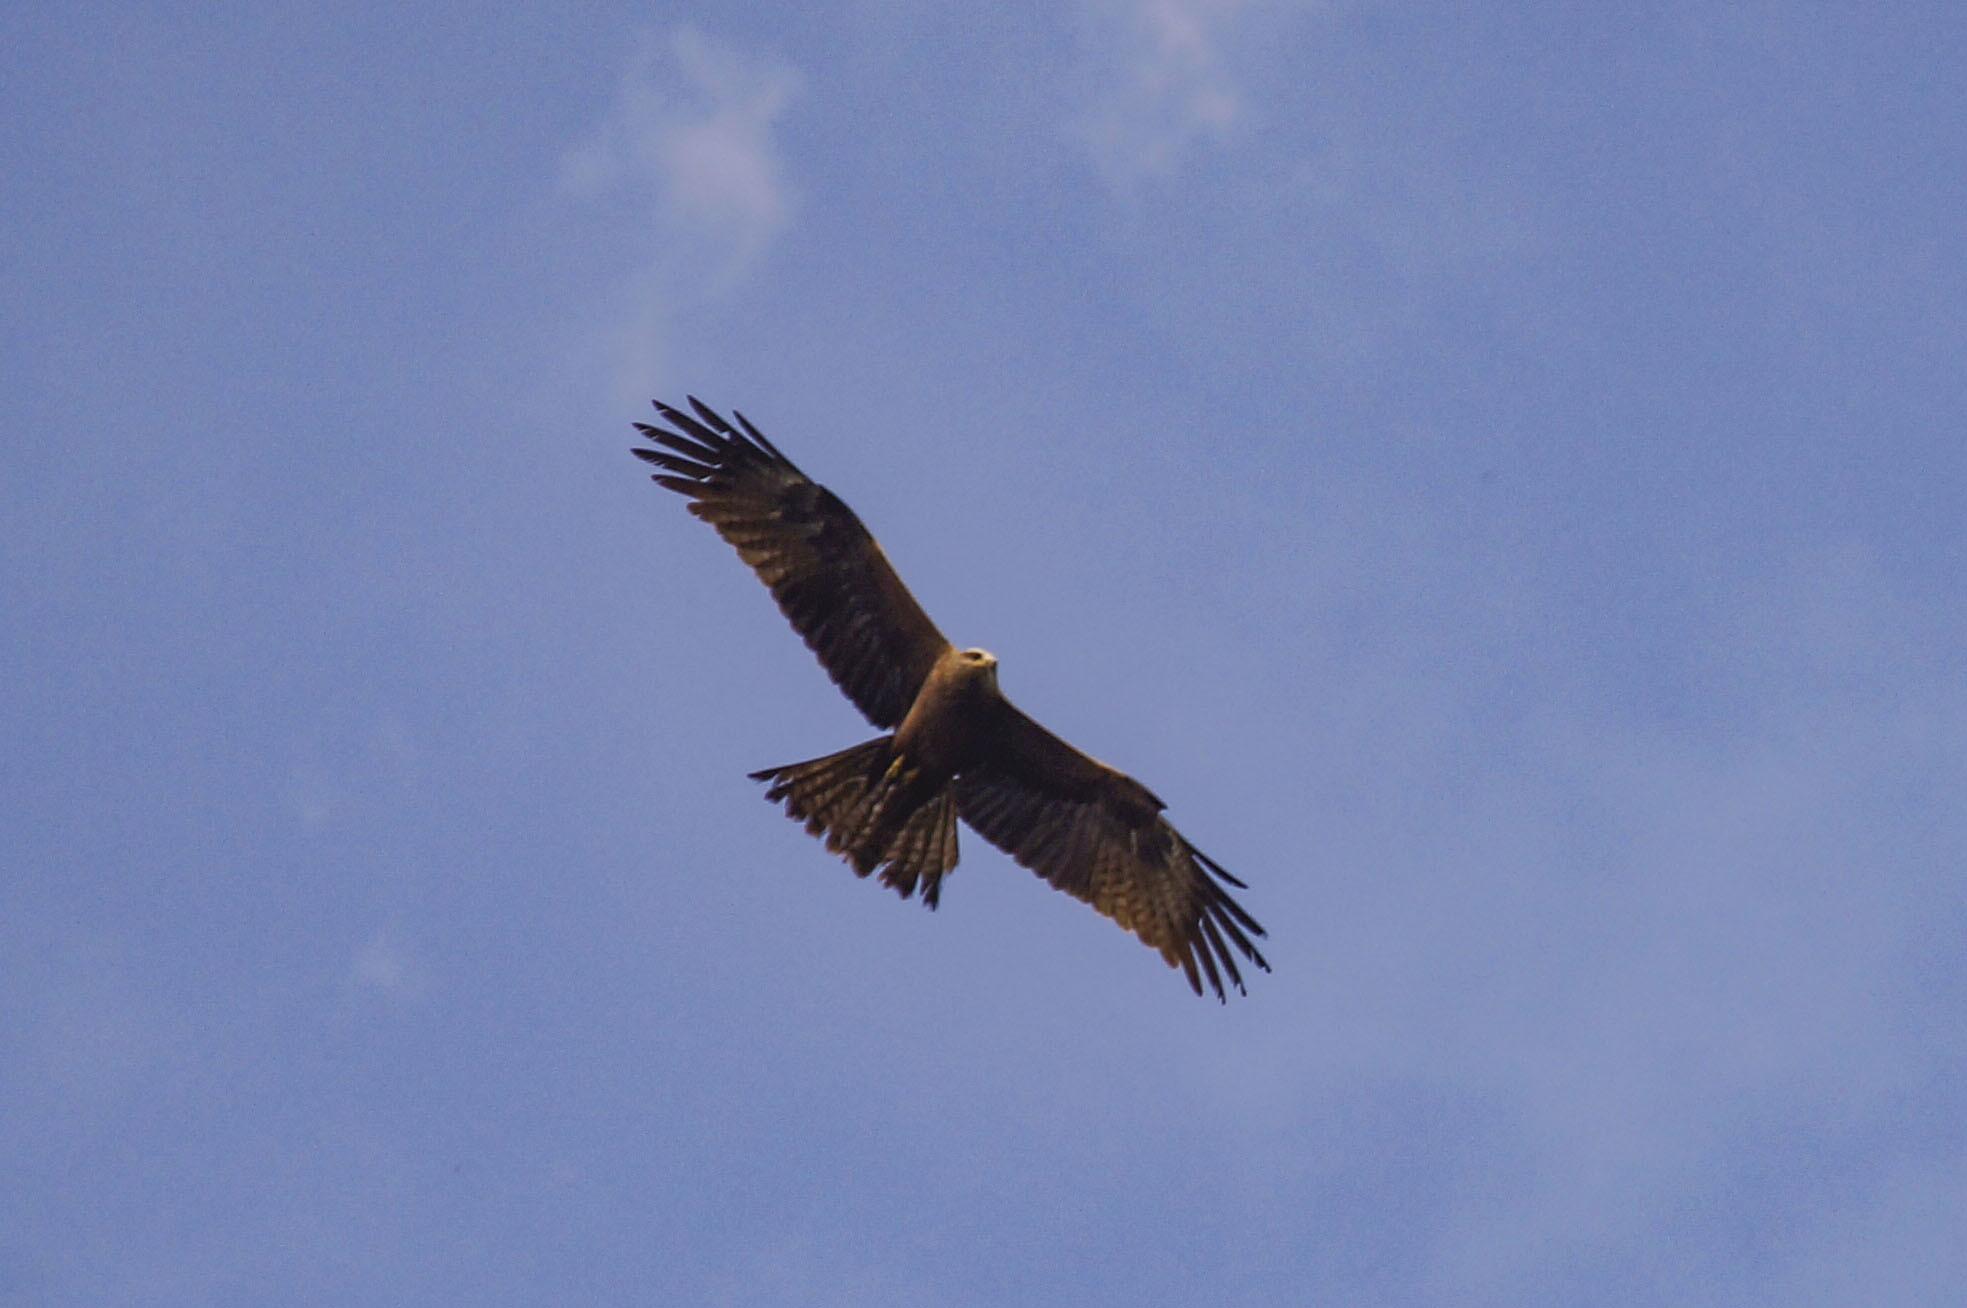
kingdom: Animalia
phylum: Chordata
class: Aves
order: Accipitriformes
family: Accipitridae
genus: Milvus
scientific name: Milvus migrans
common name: Black kite
